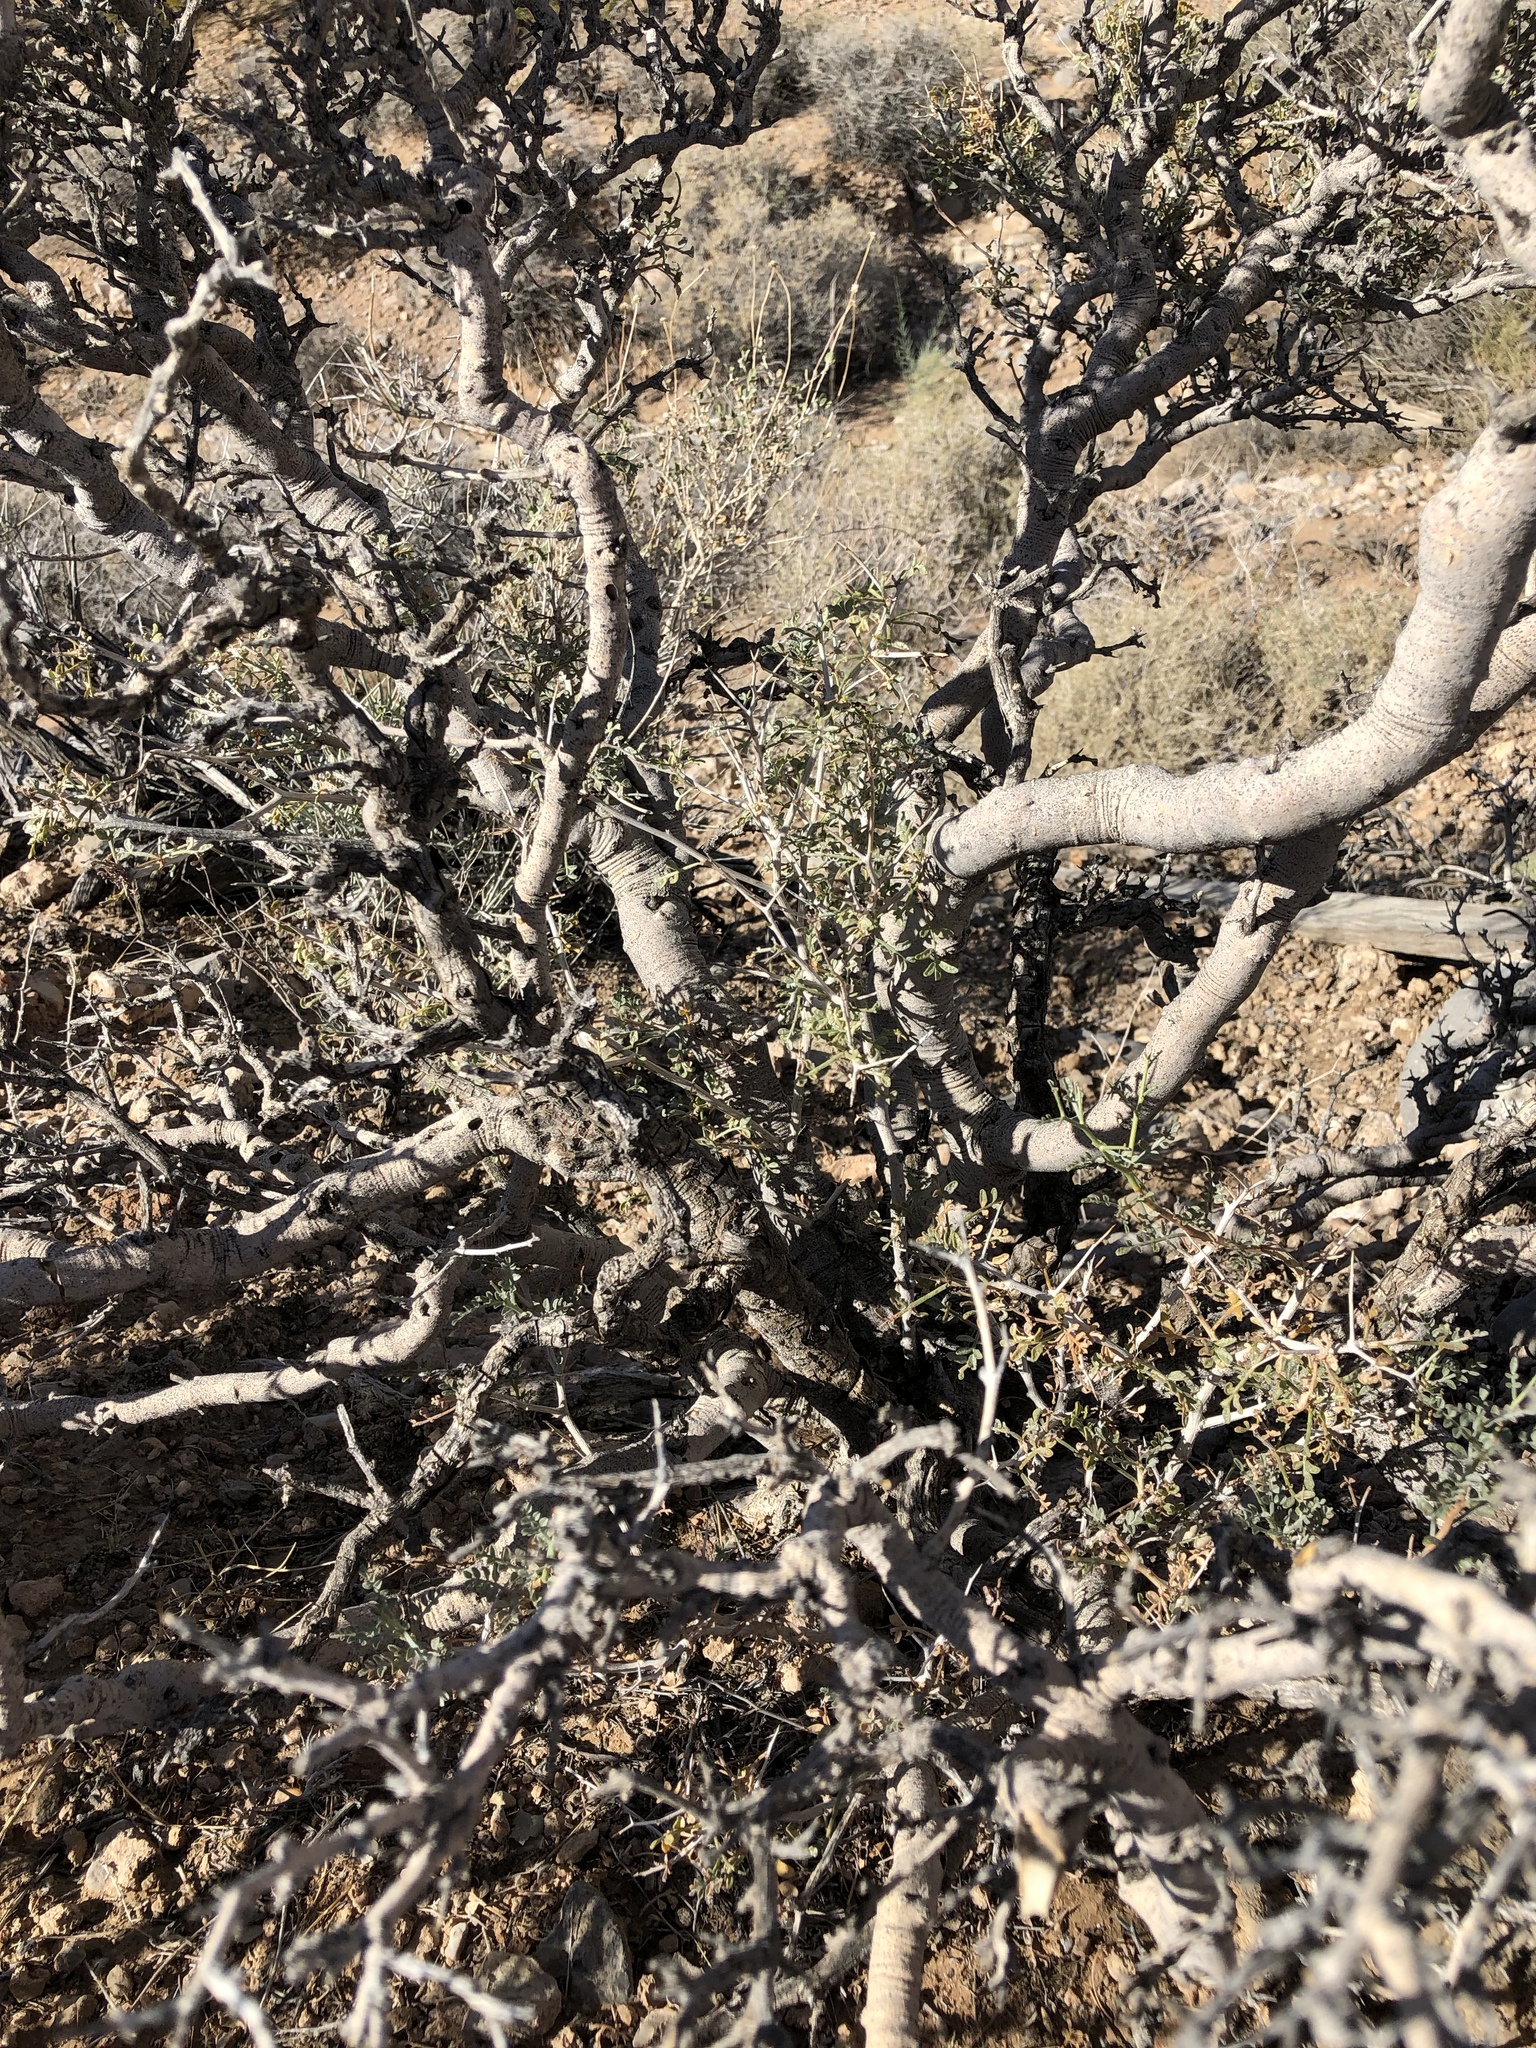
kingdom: Plantae
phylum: Tracheophyta
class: Magnoliopsida
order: Fabales
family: Fabaceae
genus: Psorothamnus
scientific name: Psorothamnus fremontii
